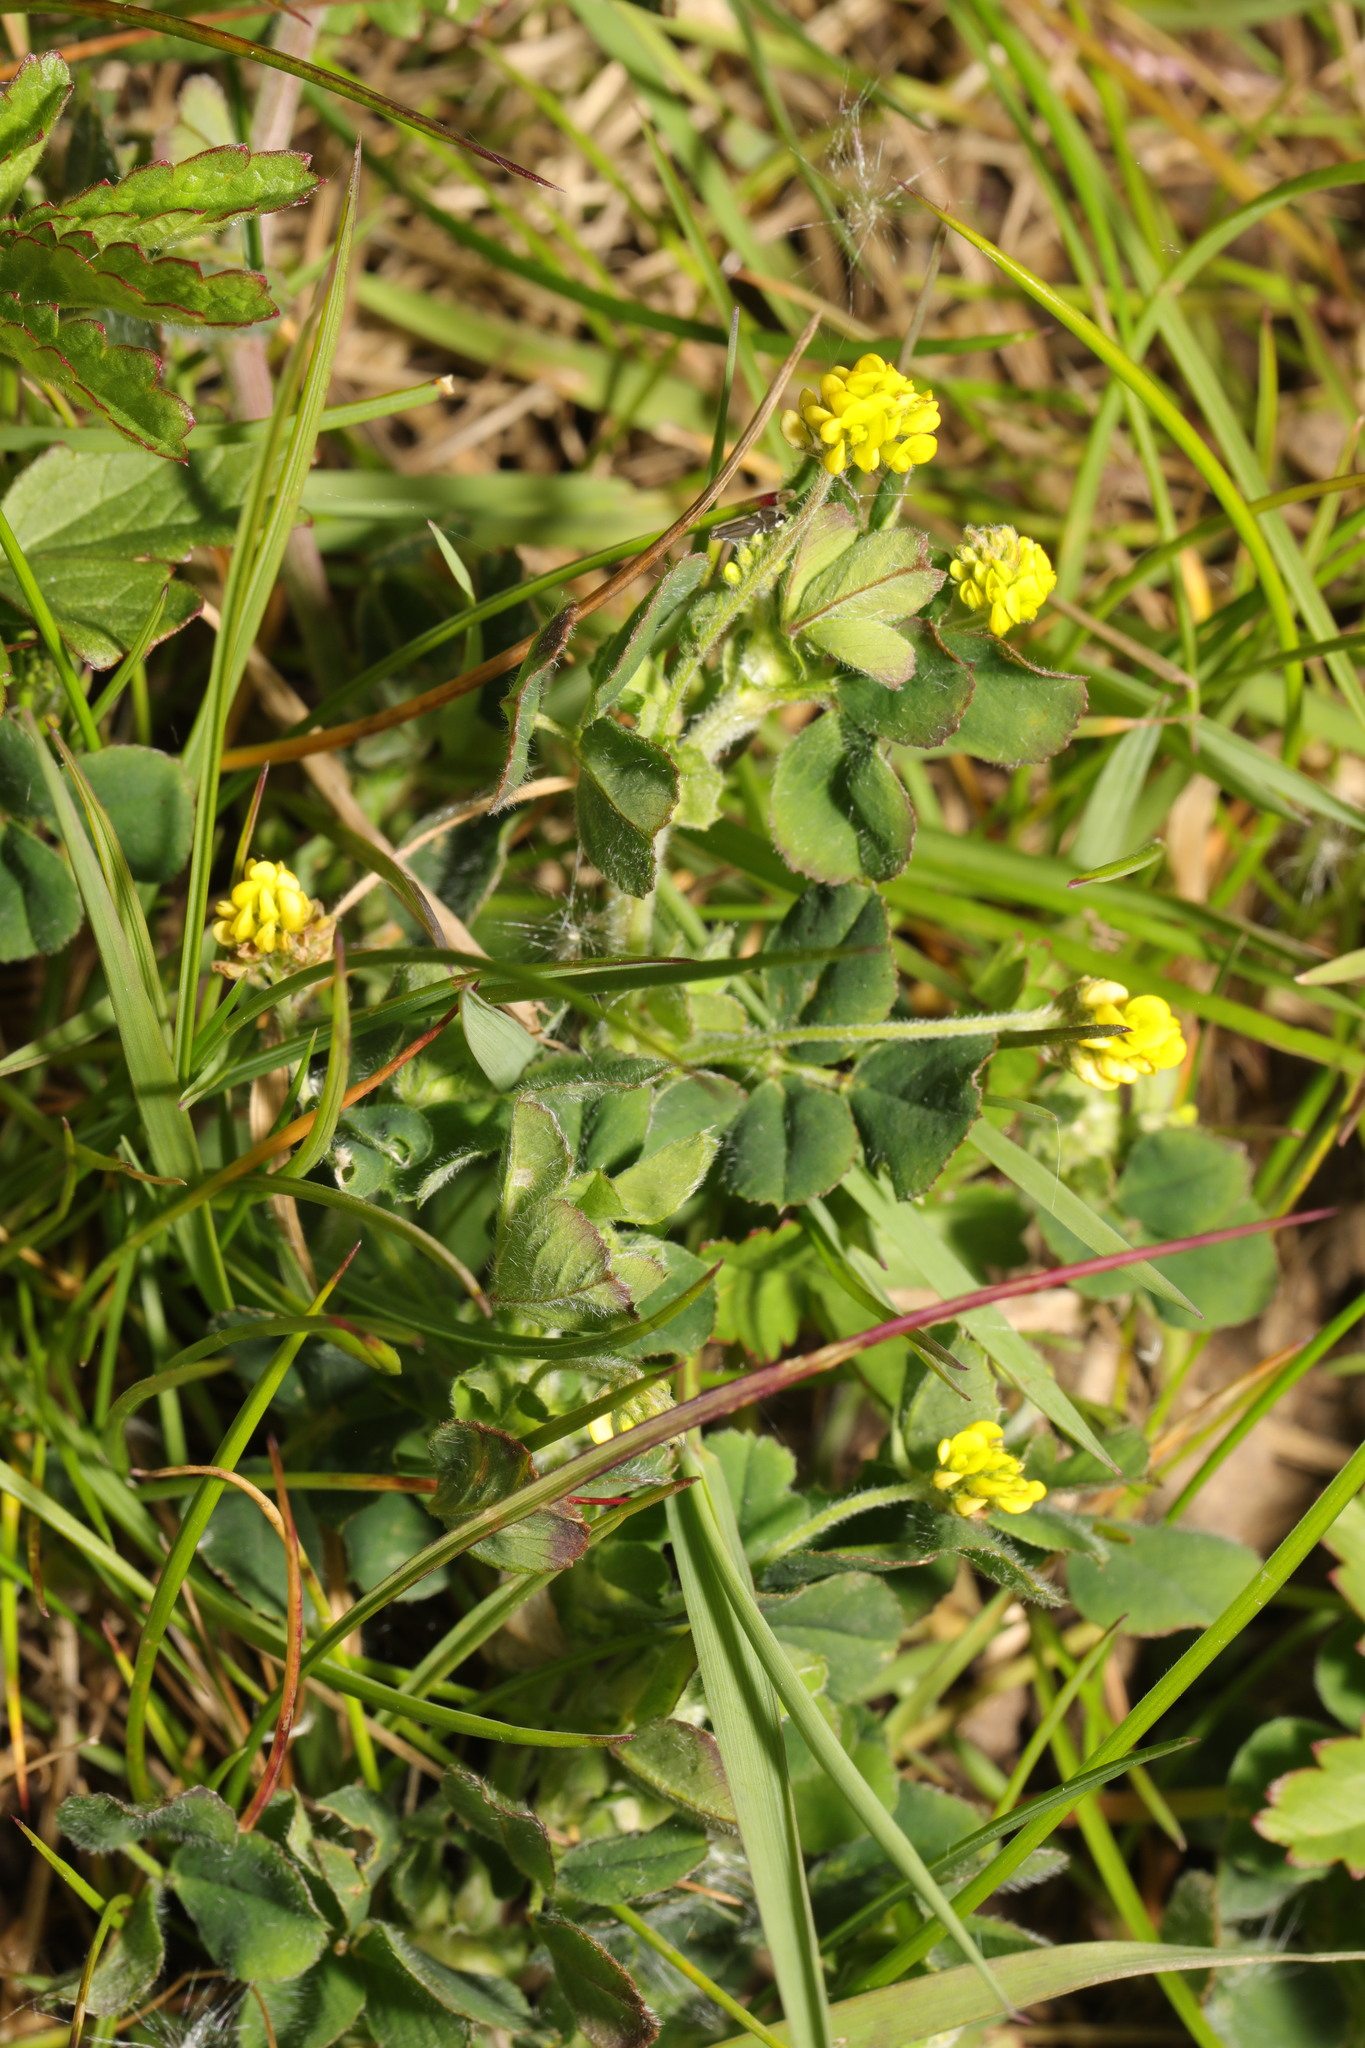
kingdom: Plantae
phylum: Tracheophyta
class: Magnoliopsida
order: Fabales
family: Fabaceae
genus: Medicago
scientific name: Medicago lupulina
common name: Black medick
